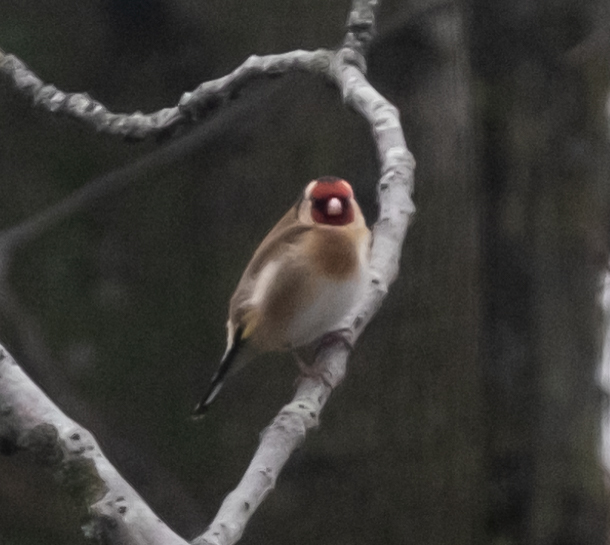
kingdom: Animalia
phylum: Chordata
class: Aves
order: Passeriformes
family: Fringillidae
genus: Carduelis
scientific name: Carduelis carduelis
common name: European goldfinch
